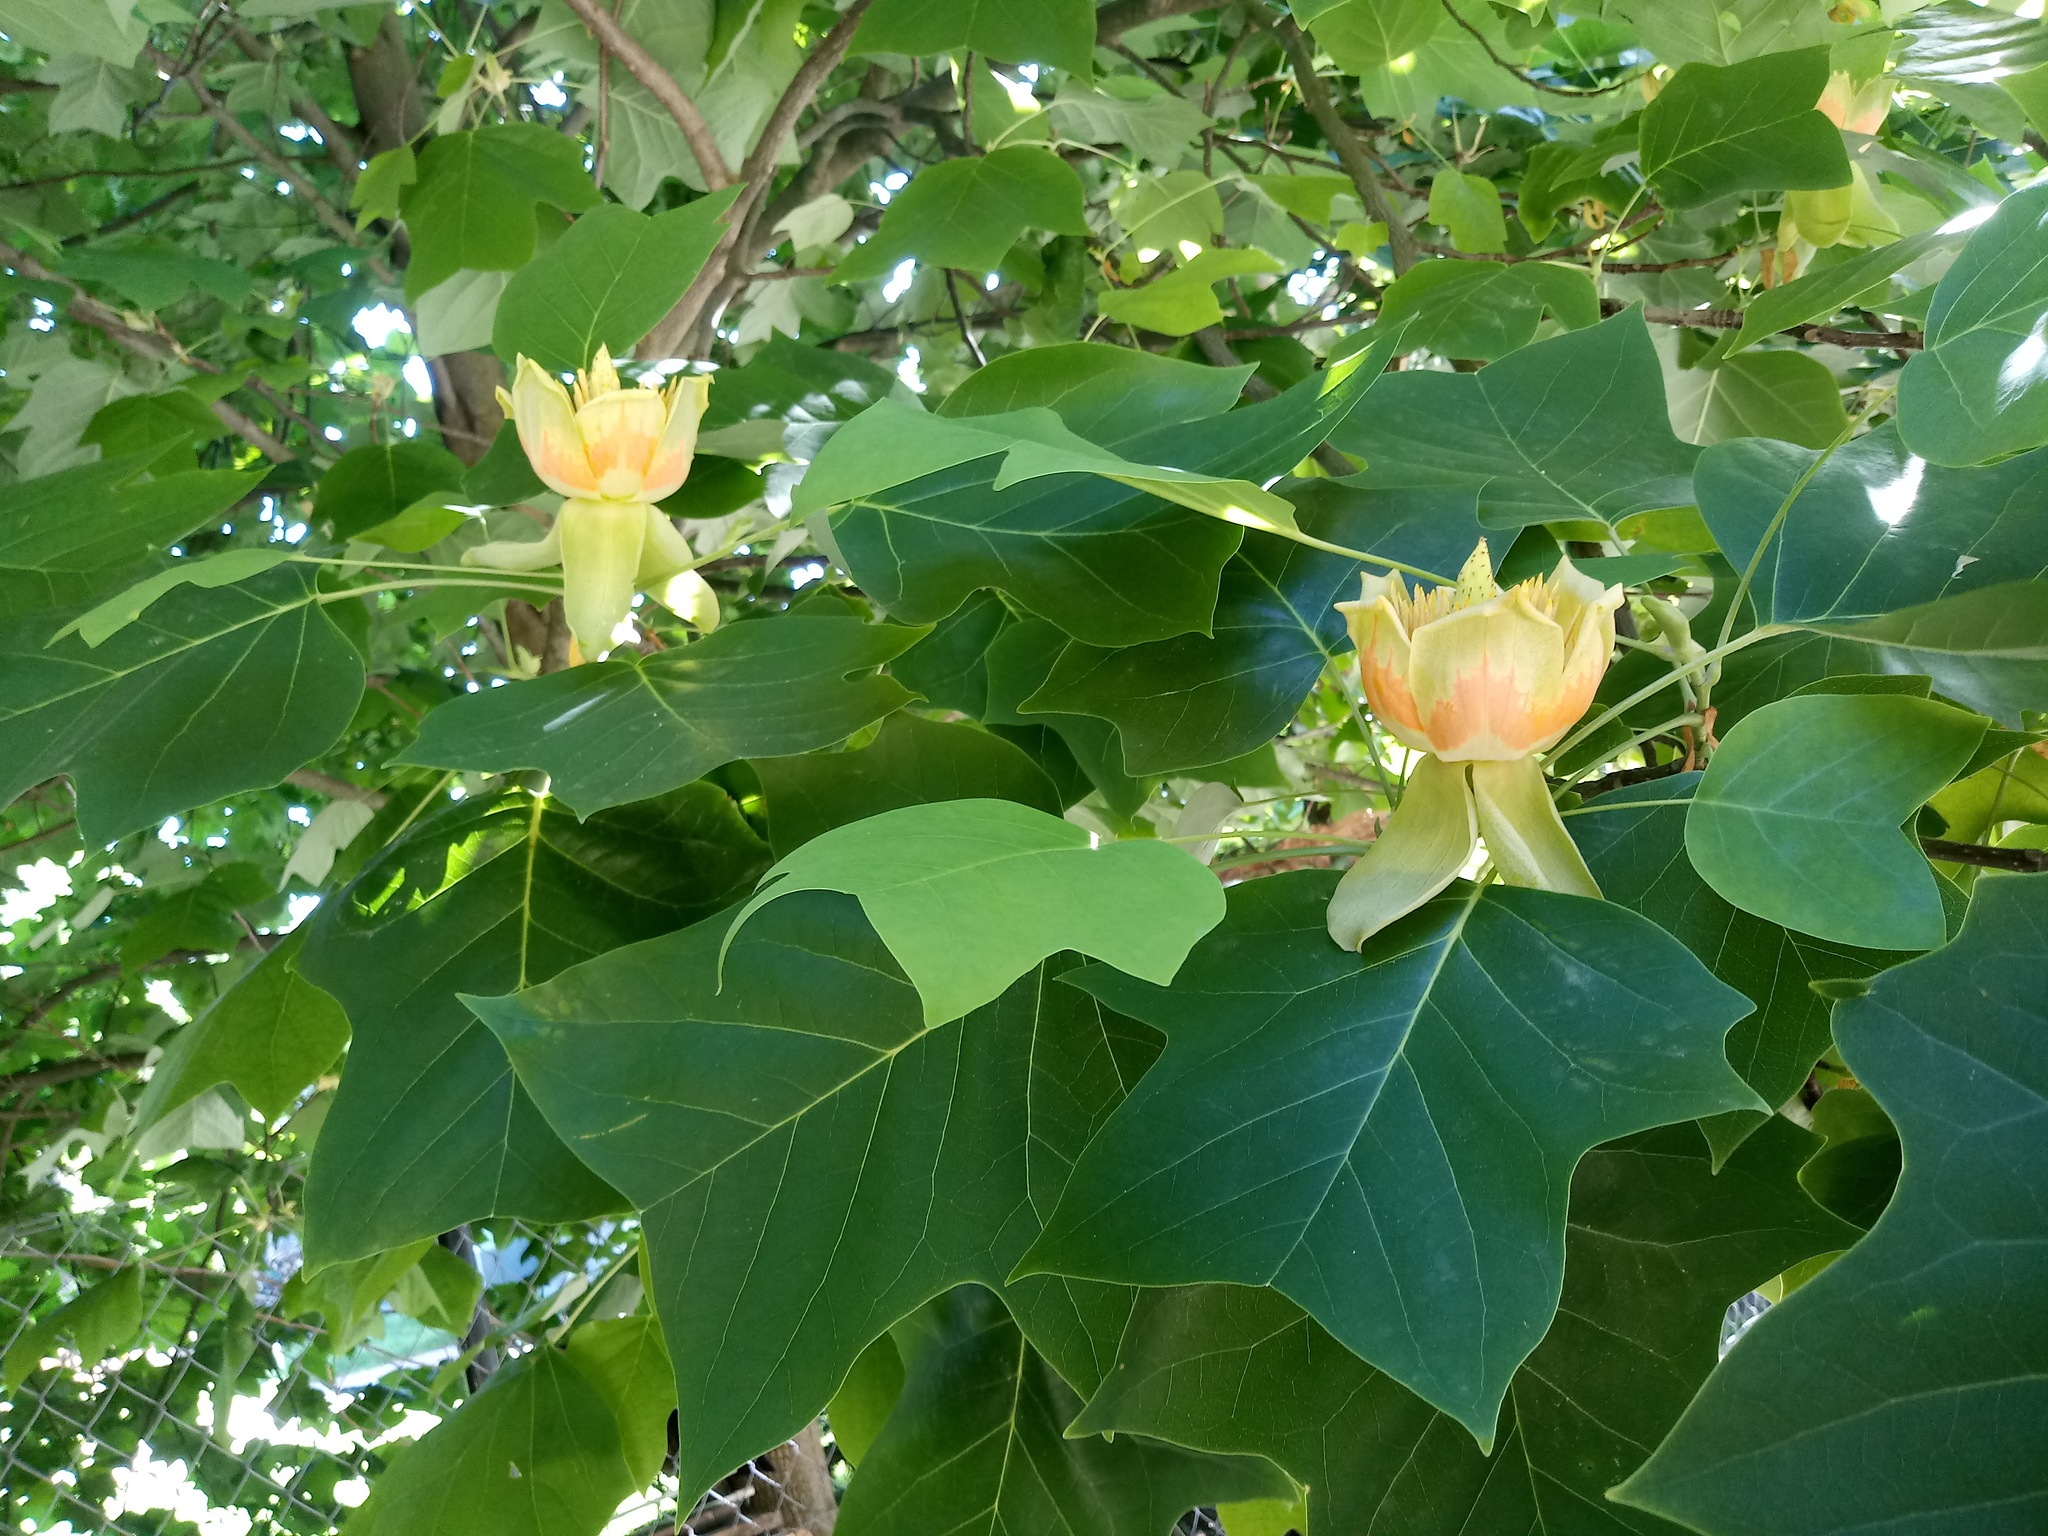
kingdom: Plantae
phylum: Tracheophyta
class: Magnoliopsida
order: Magnoliales
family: Magnoliaceae
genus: Liriodendron
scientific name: Liriodendron tulipifera
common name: Tulip tree
